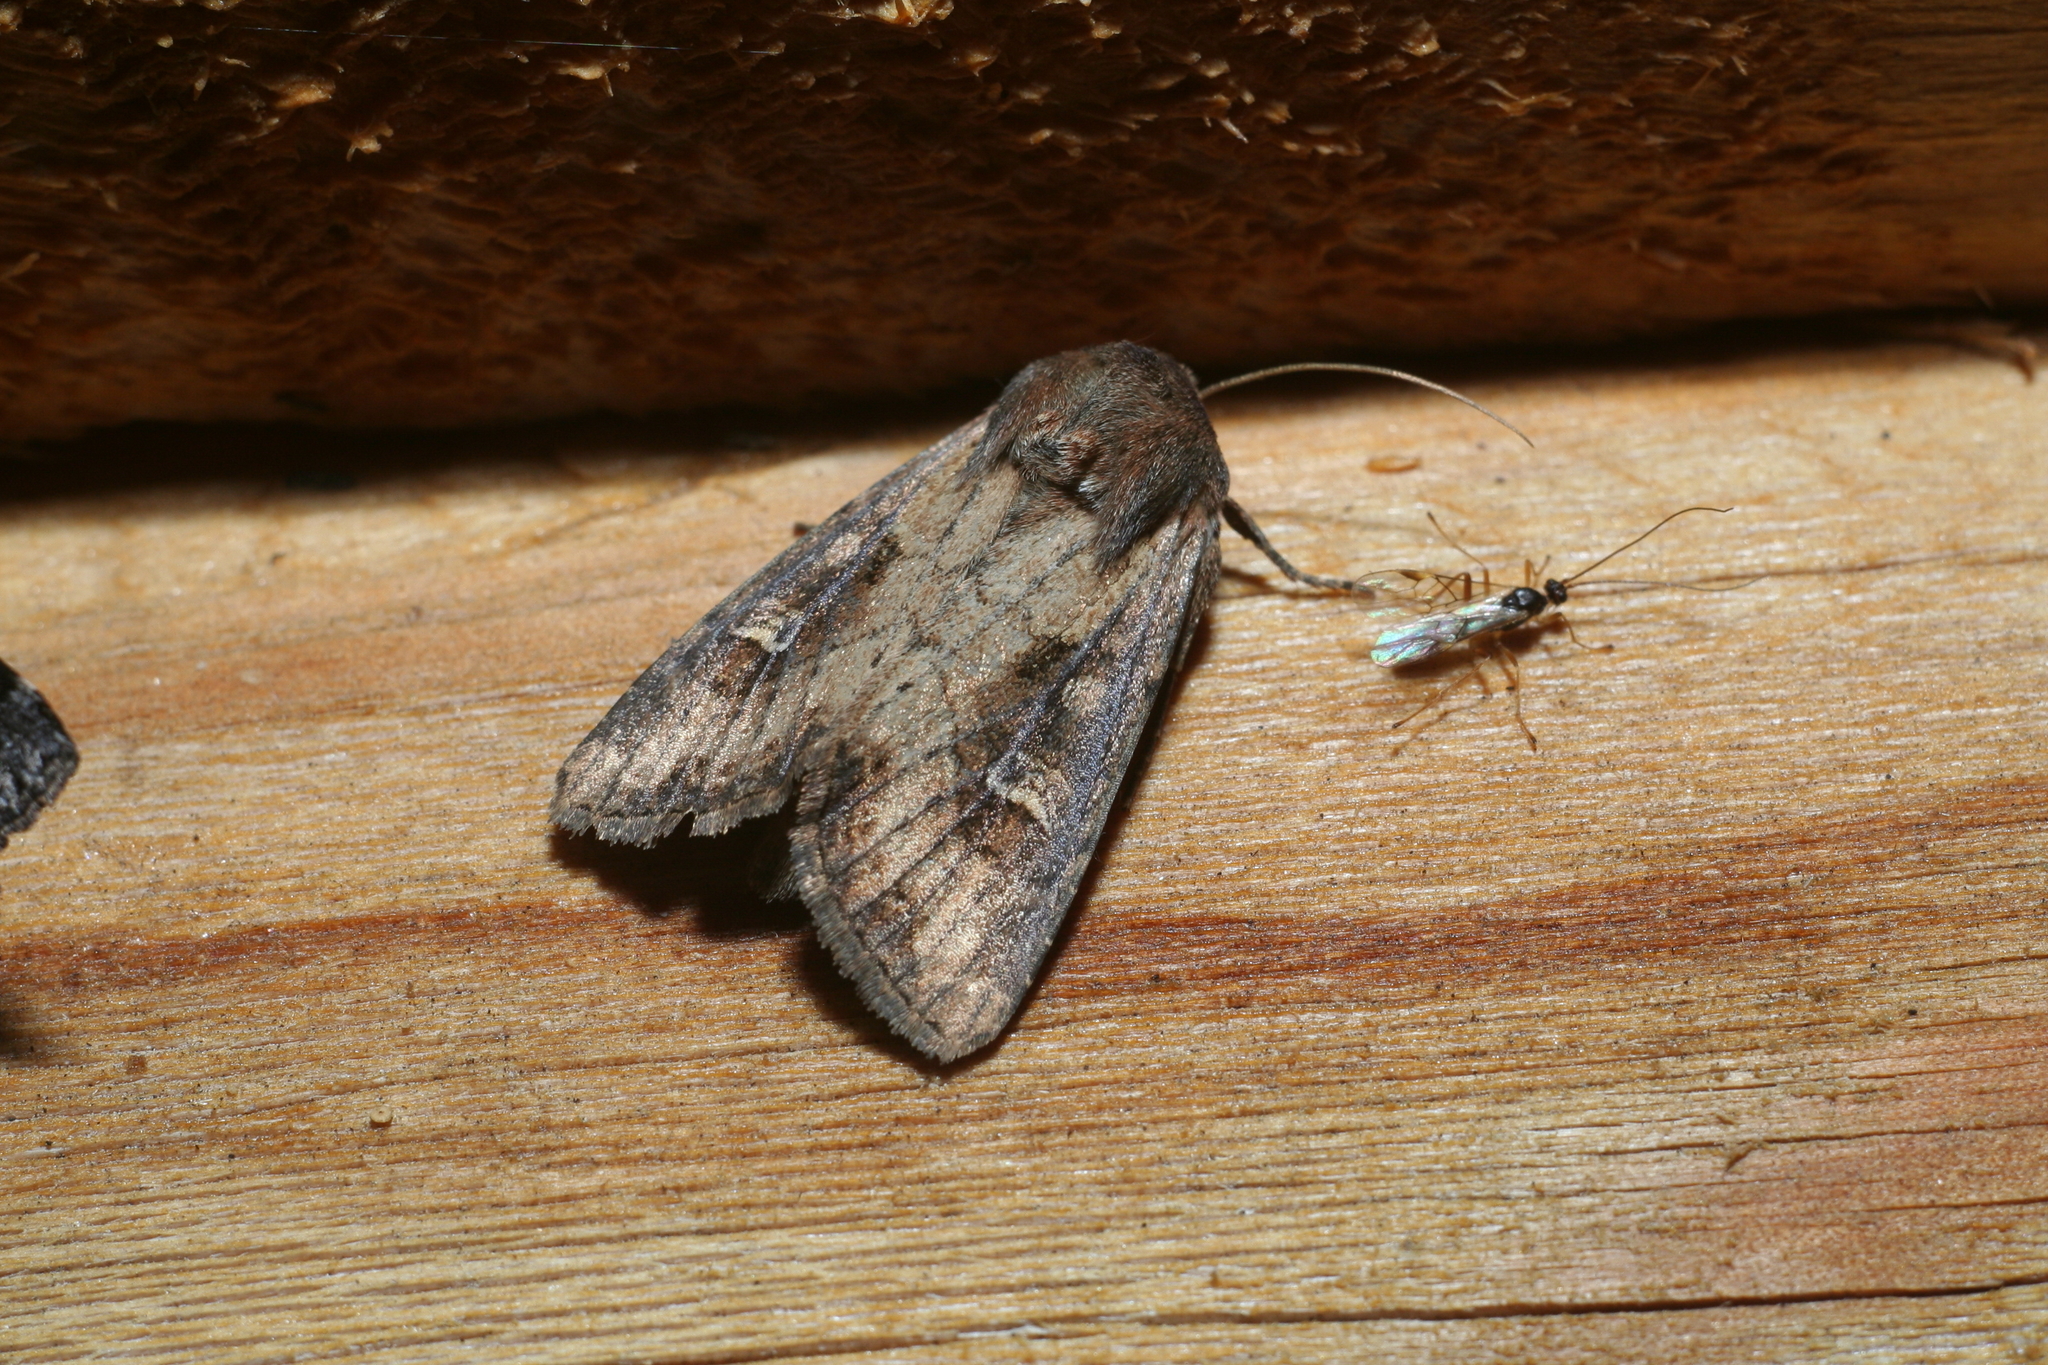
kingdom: Animalia
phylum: Arthropoda
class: Insecta
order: Lepidoptera
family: Noctuidae
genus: Resapamea
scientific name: Resapamea hedeni
